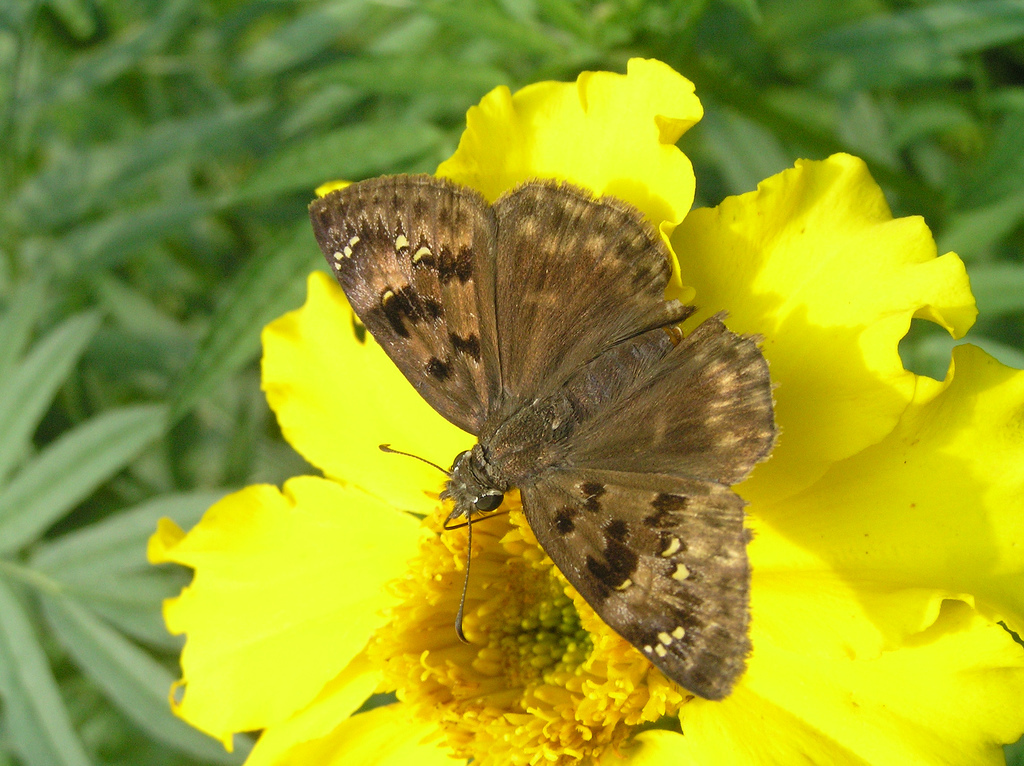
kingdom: Animalia
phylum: Arthropoda
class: Insecta
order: Lepidoptera
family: Hesperiidae
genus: Erynnis
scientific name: Erynnis horatius
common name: Horace's duskywing
